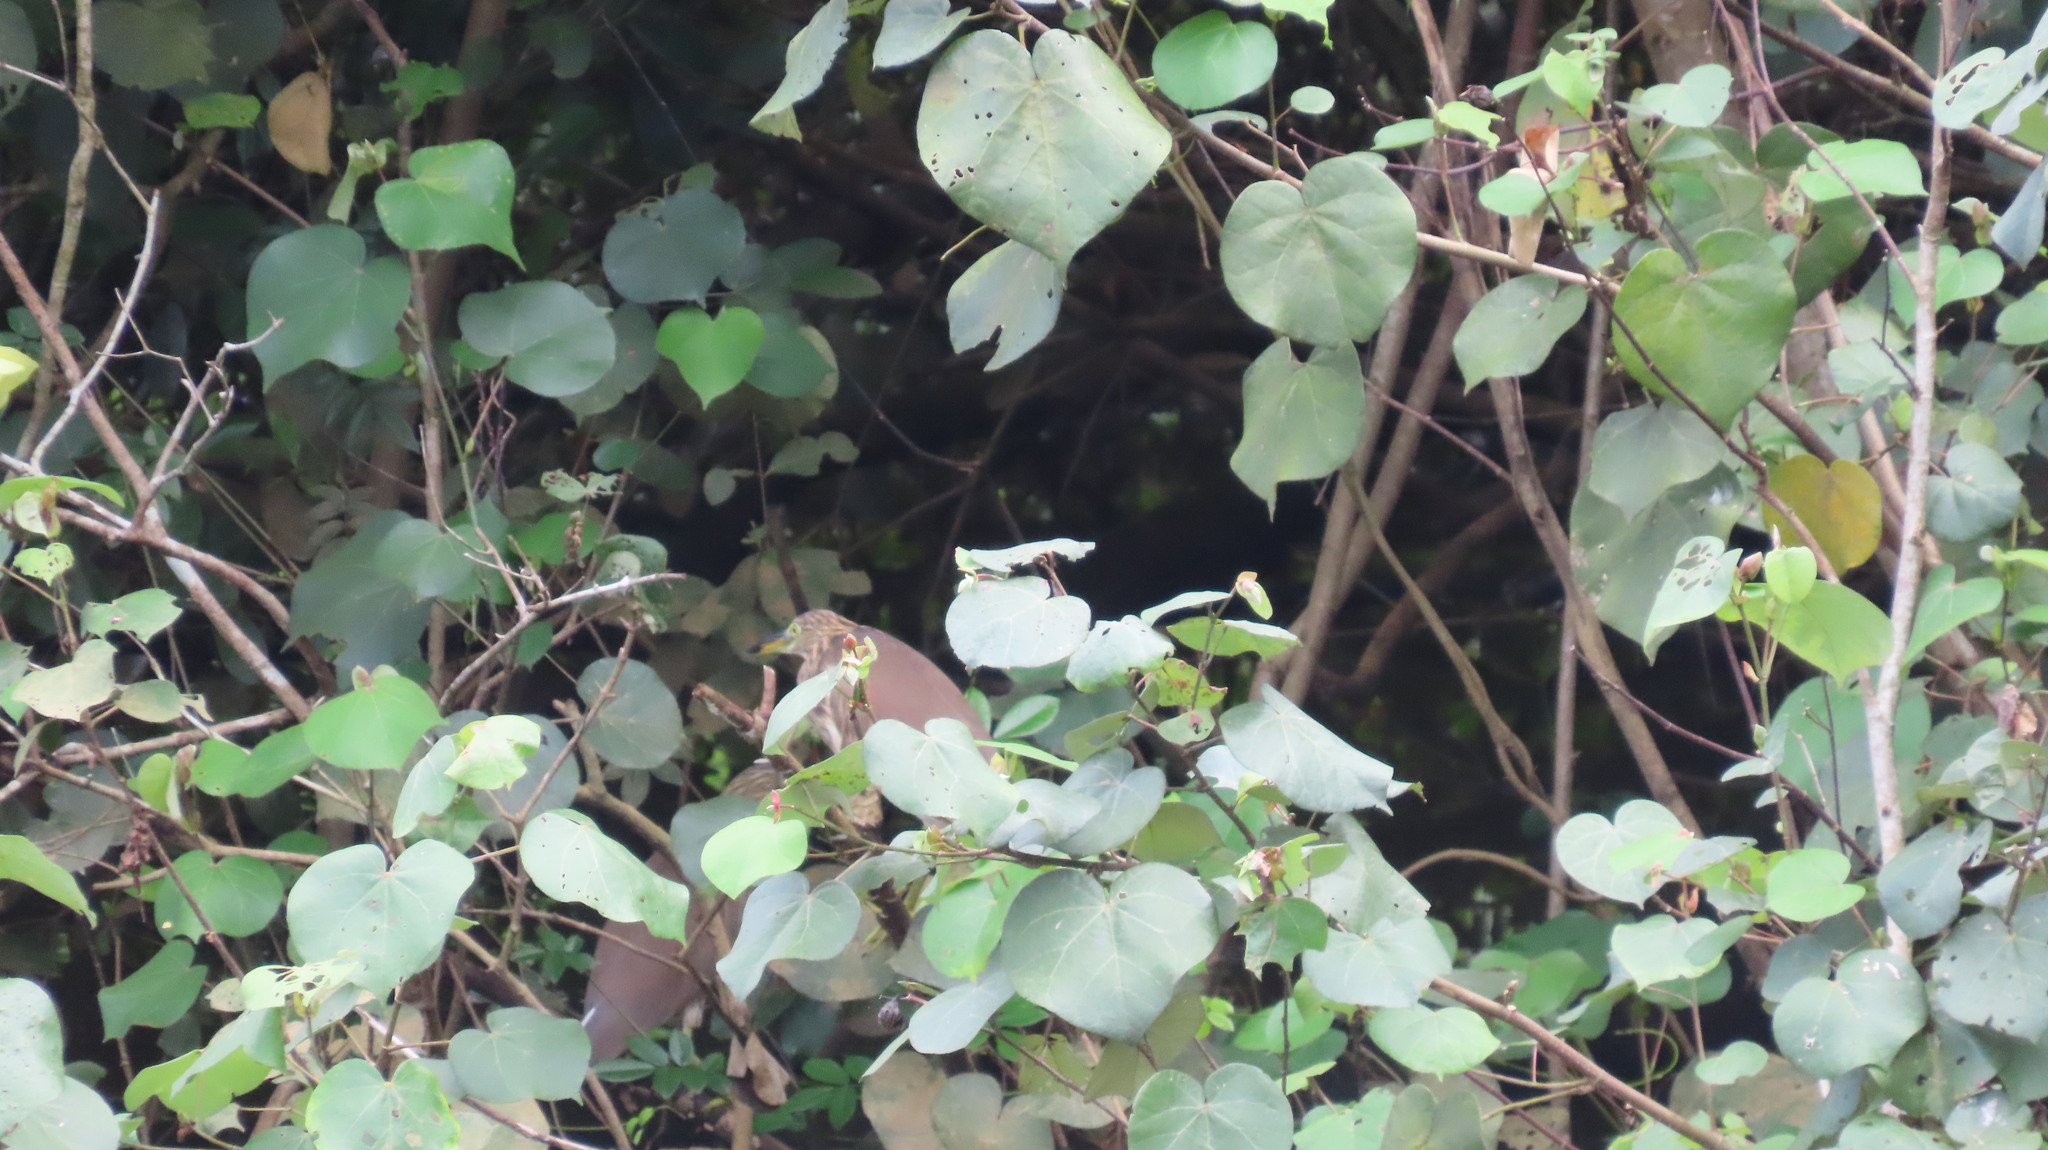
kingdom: Animalia
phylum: Chordata
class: Aves
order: Pelecaniformes
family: Ardeidae
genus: Ardeola
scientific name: Ardeola grayii
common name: Indian pond heron
